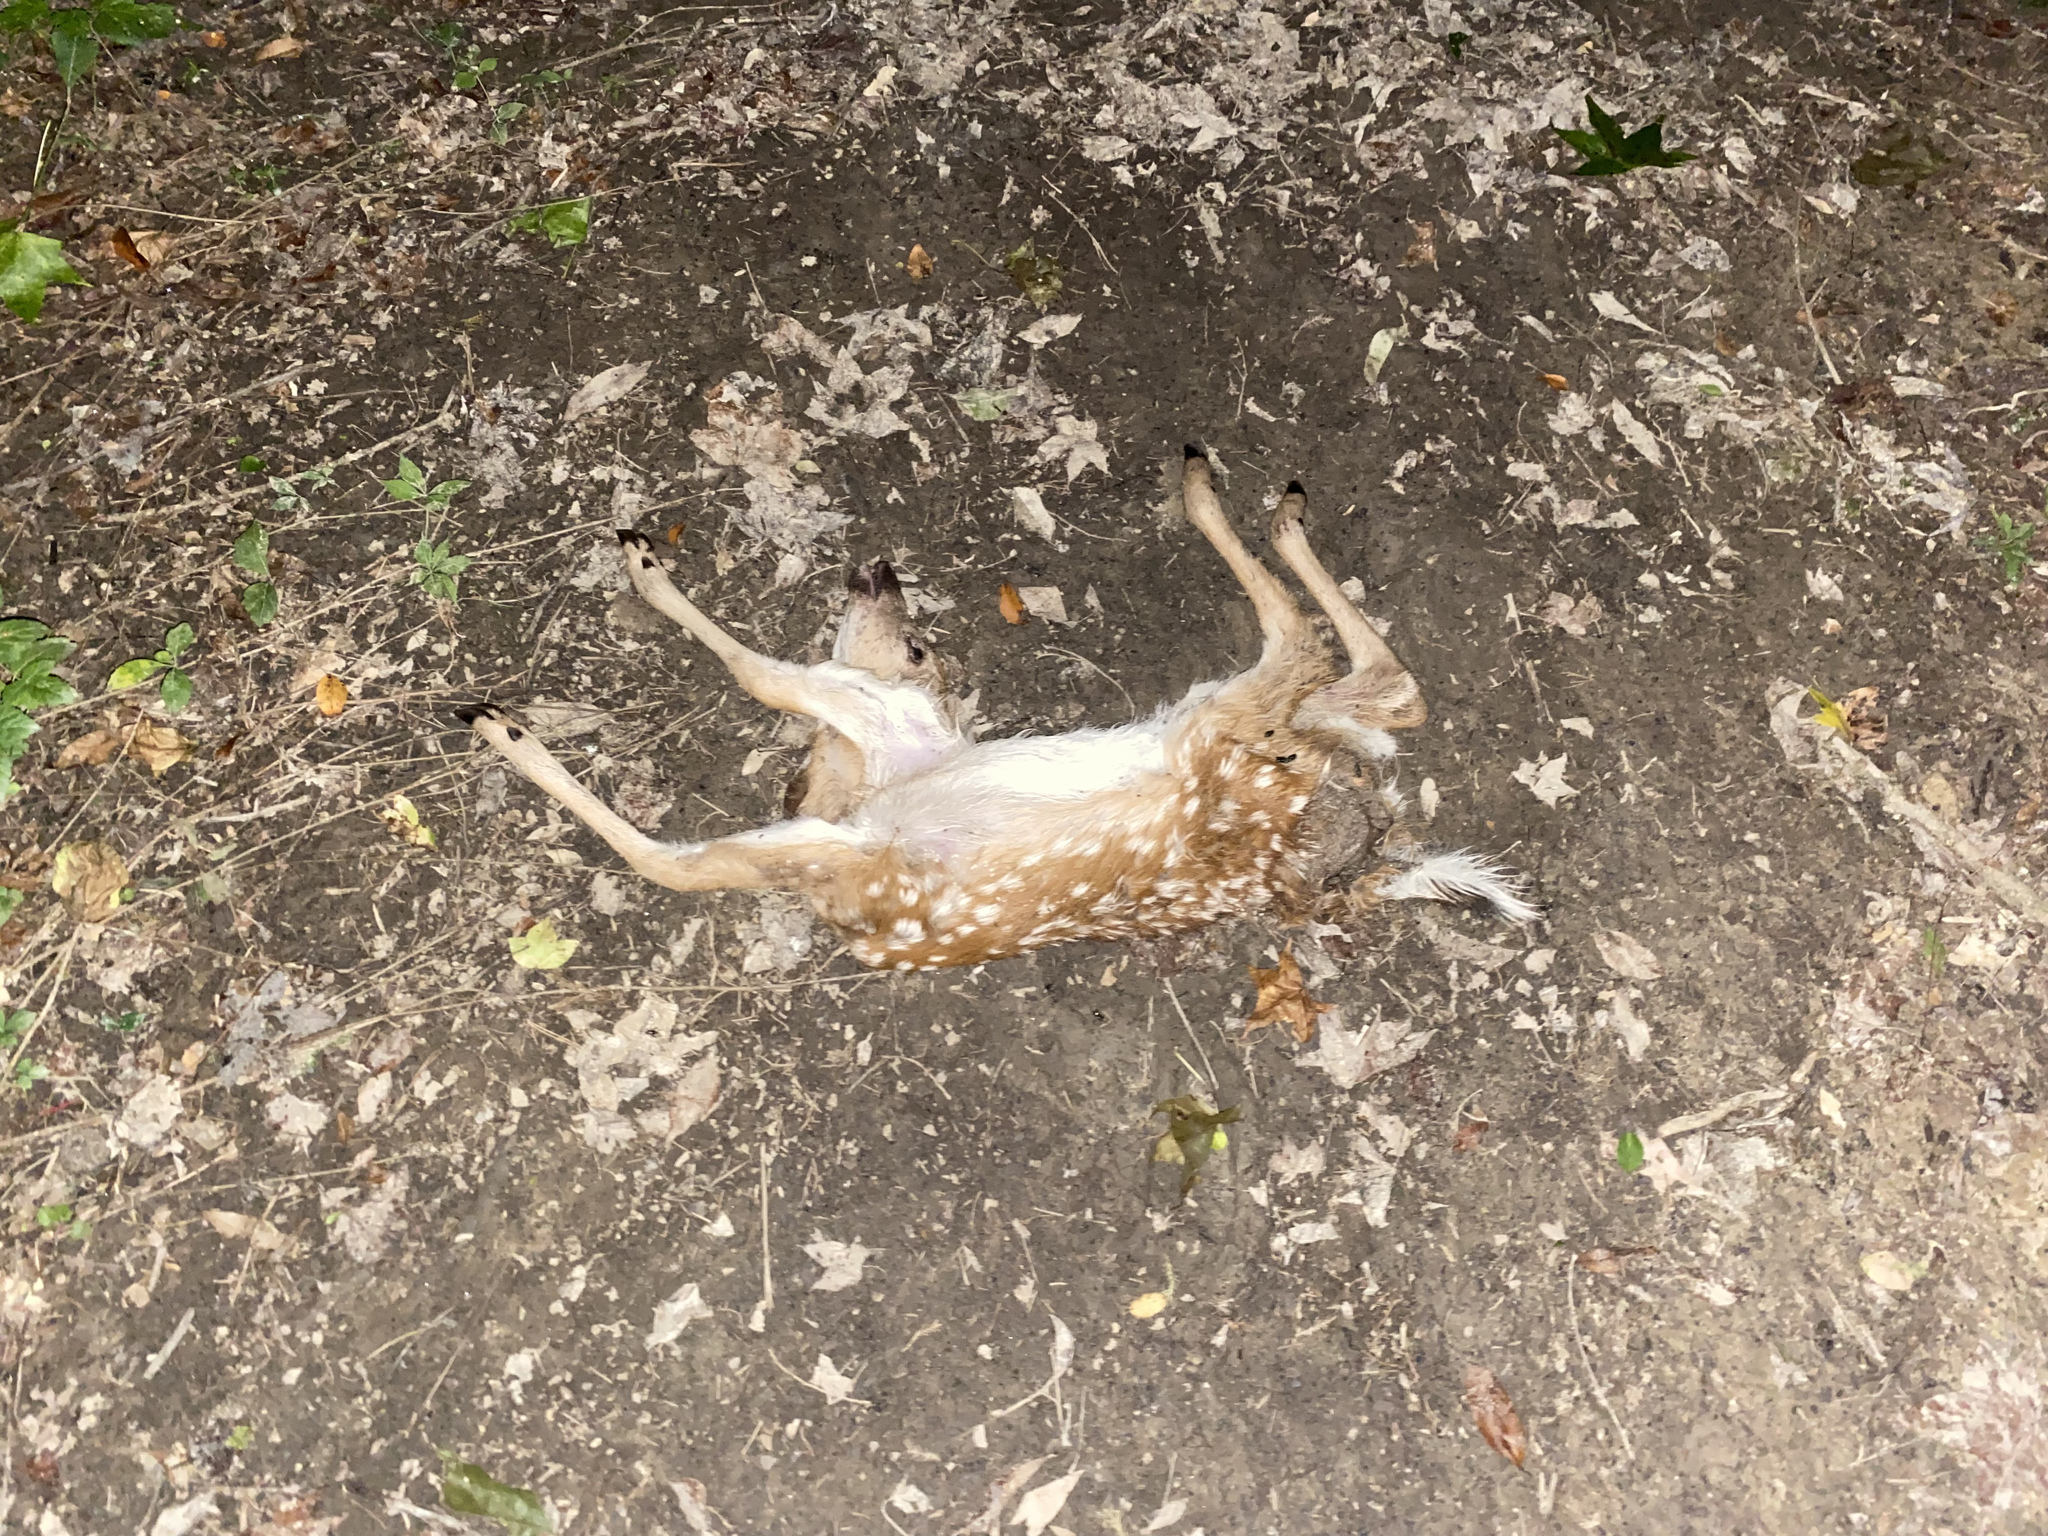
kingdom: Animalia
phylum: Chordata
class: Mammalia
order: Artiodactyla
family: Cervidae
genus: Odocoileus
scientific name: Odocoileus virginianus
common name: White-tailed deer
